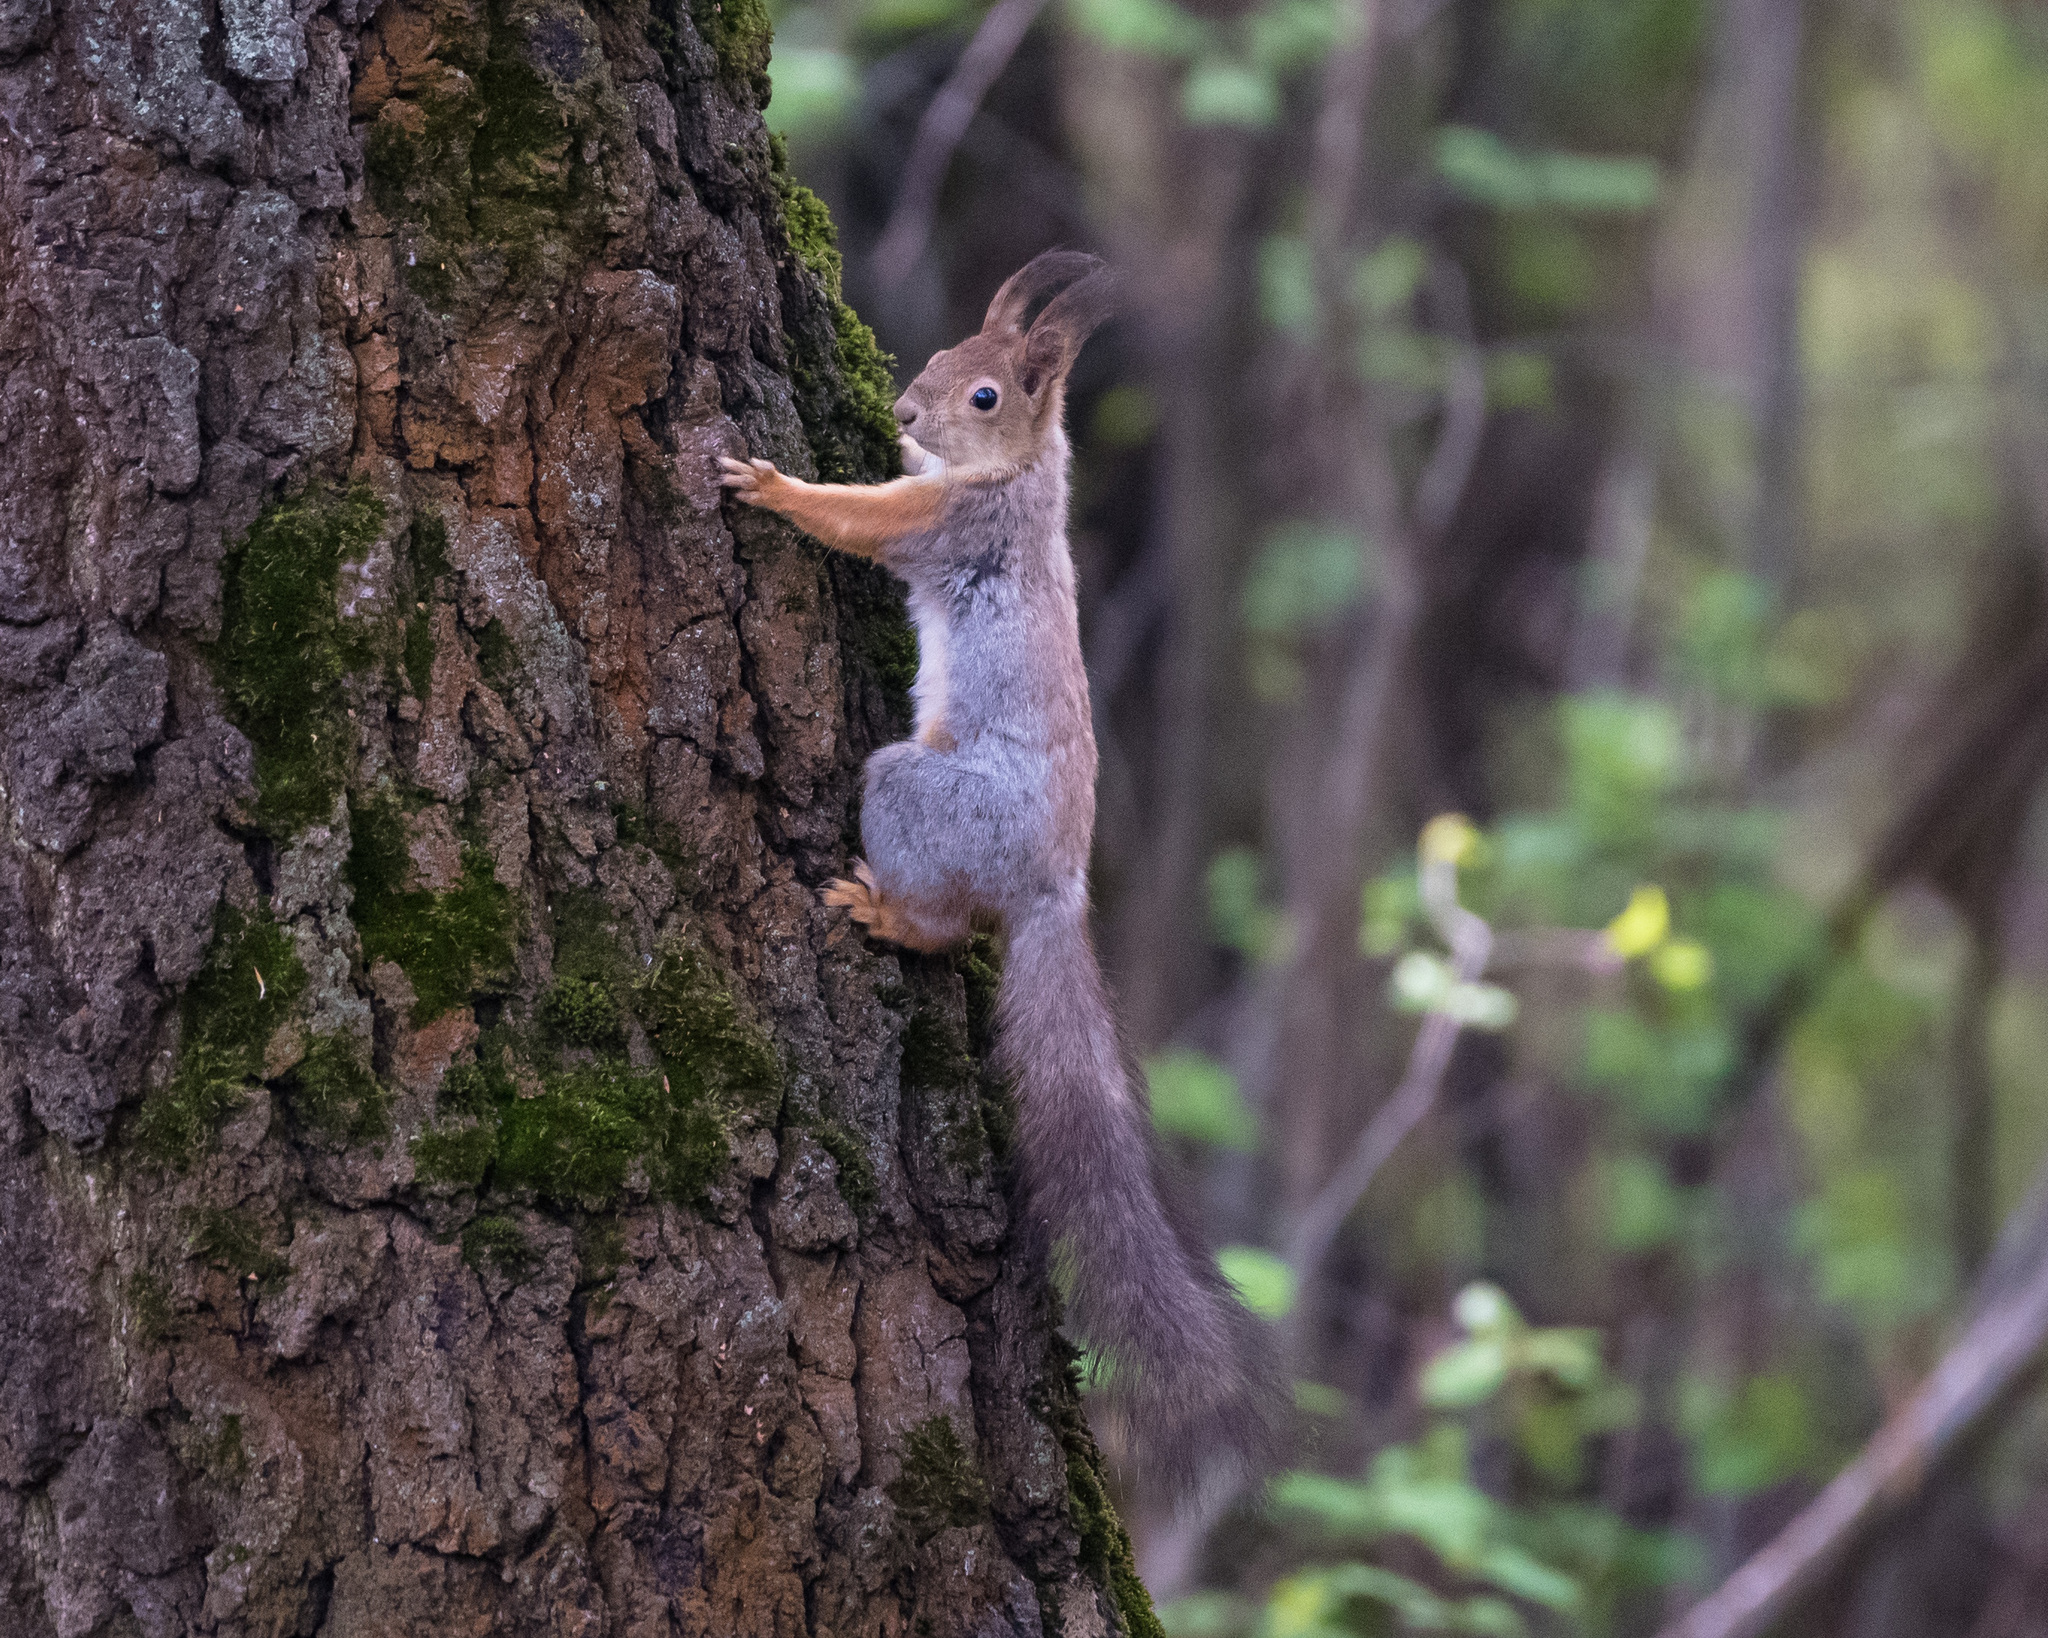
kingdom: Animalia
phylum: Chordata
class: Mammalia
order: Rodentia
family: Sciuridae
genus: Sciurus
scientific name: Sciurus vulgaris
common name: Eurasian red squirrel
